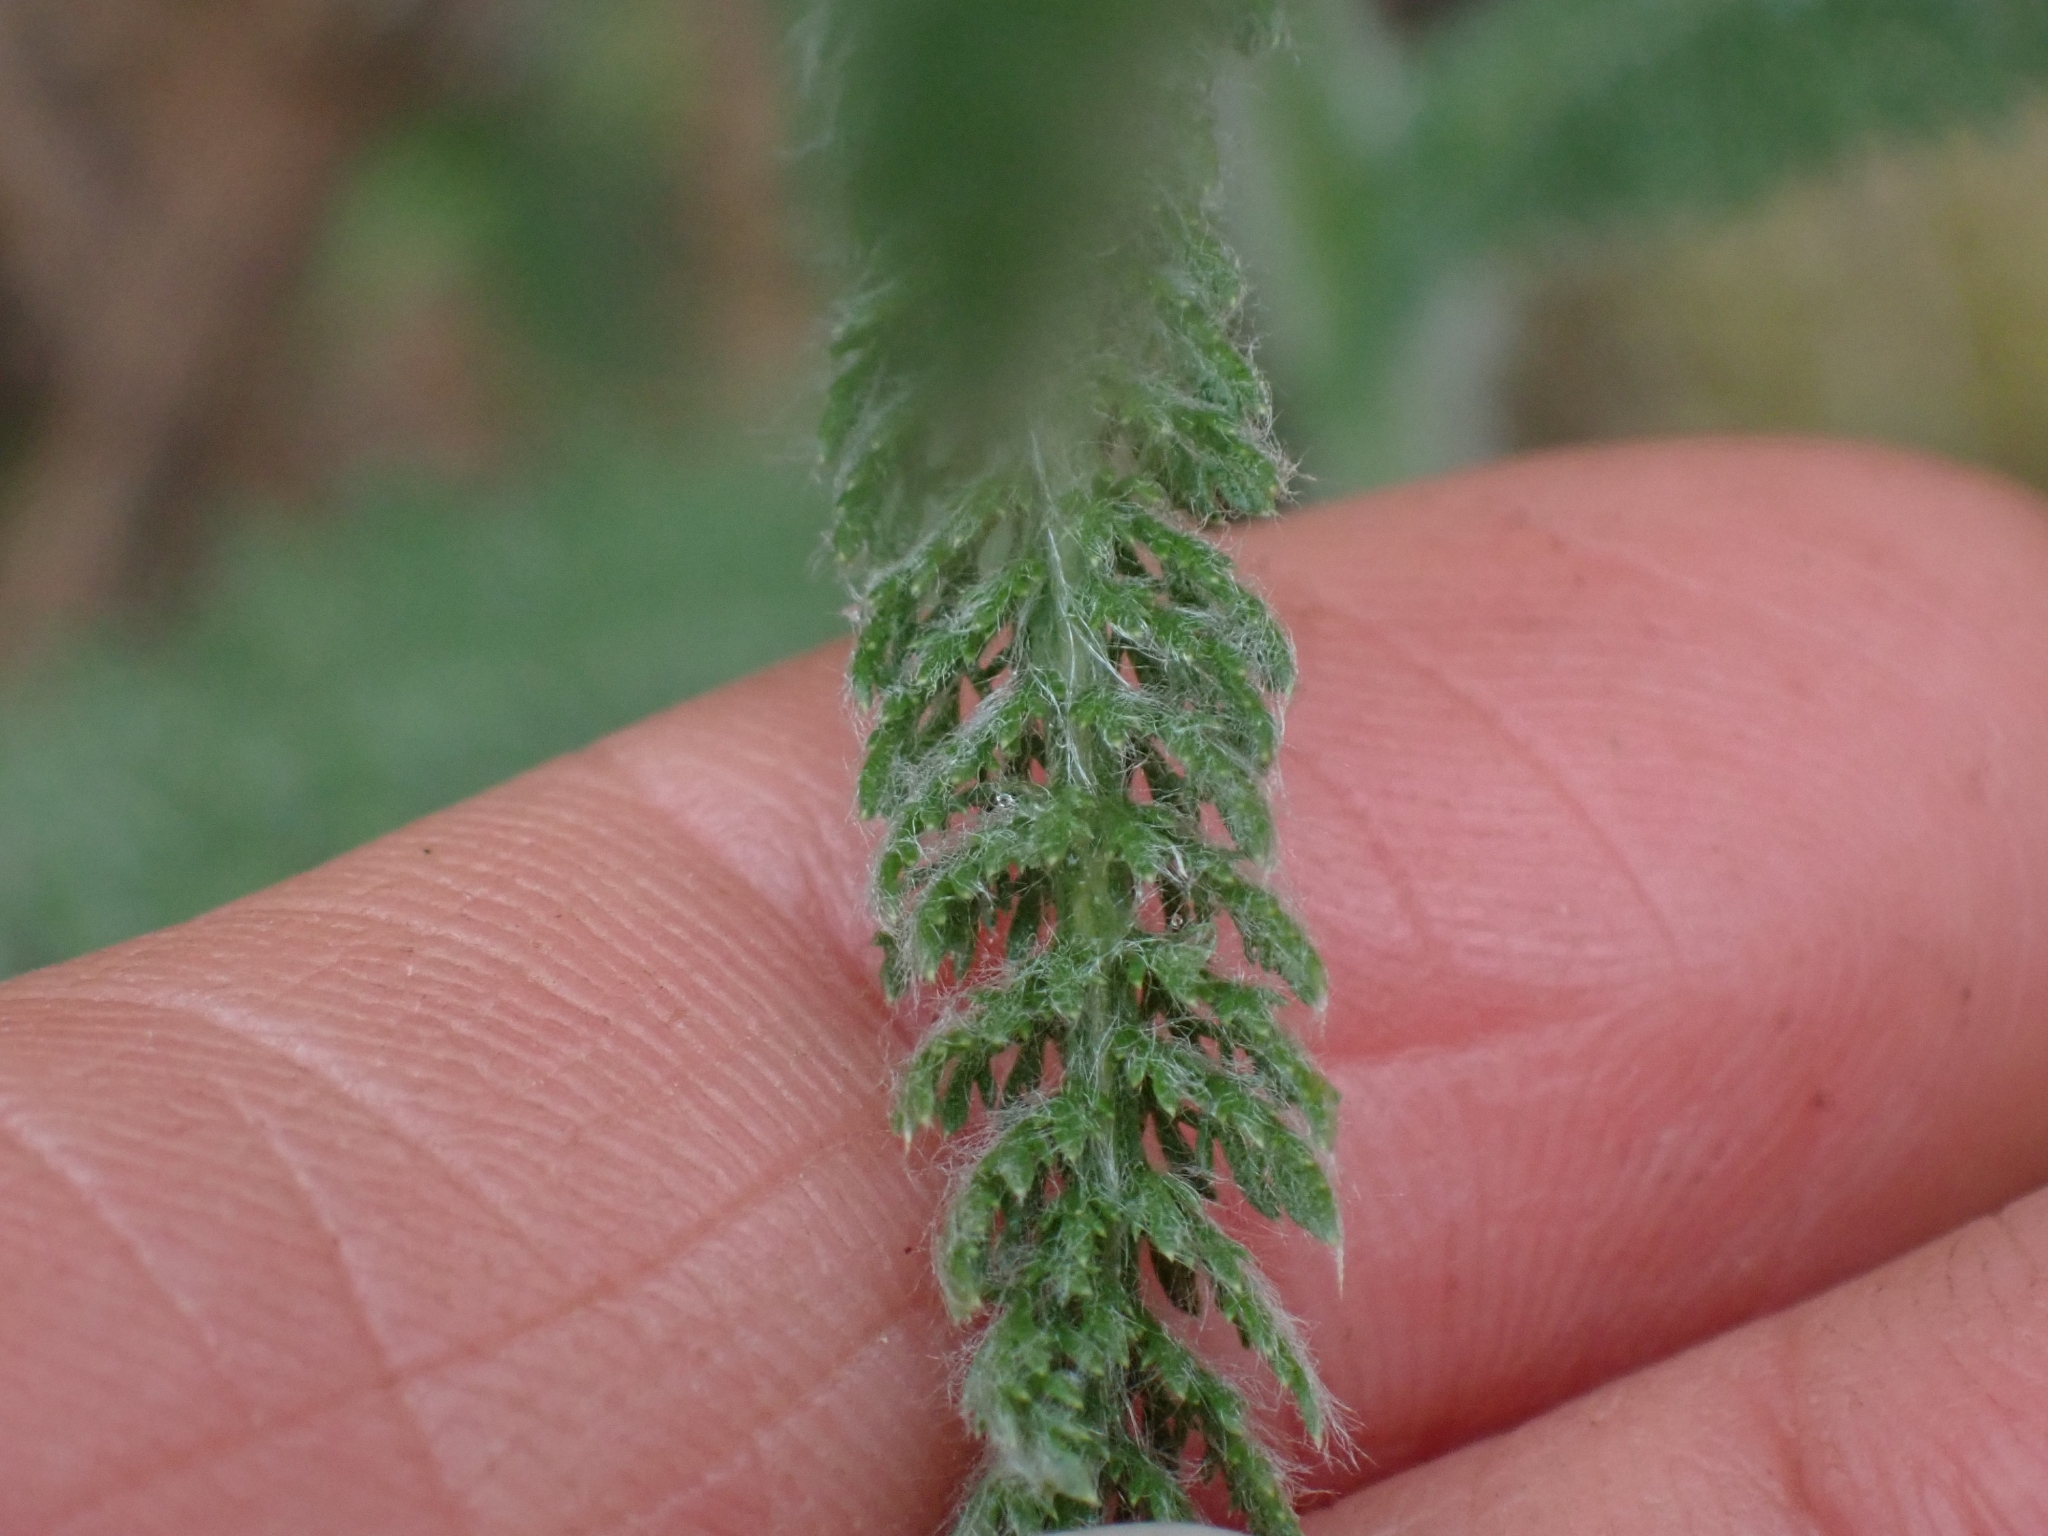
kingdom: Plantae
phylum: Tracheophyta
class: Magnoliopsida
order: Asterales
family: Asteraceae
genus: Achillea
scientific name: Achillea millefolium
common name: Yarrow
